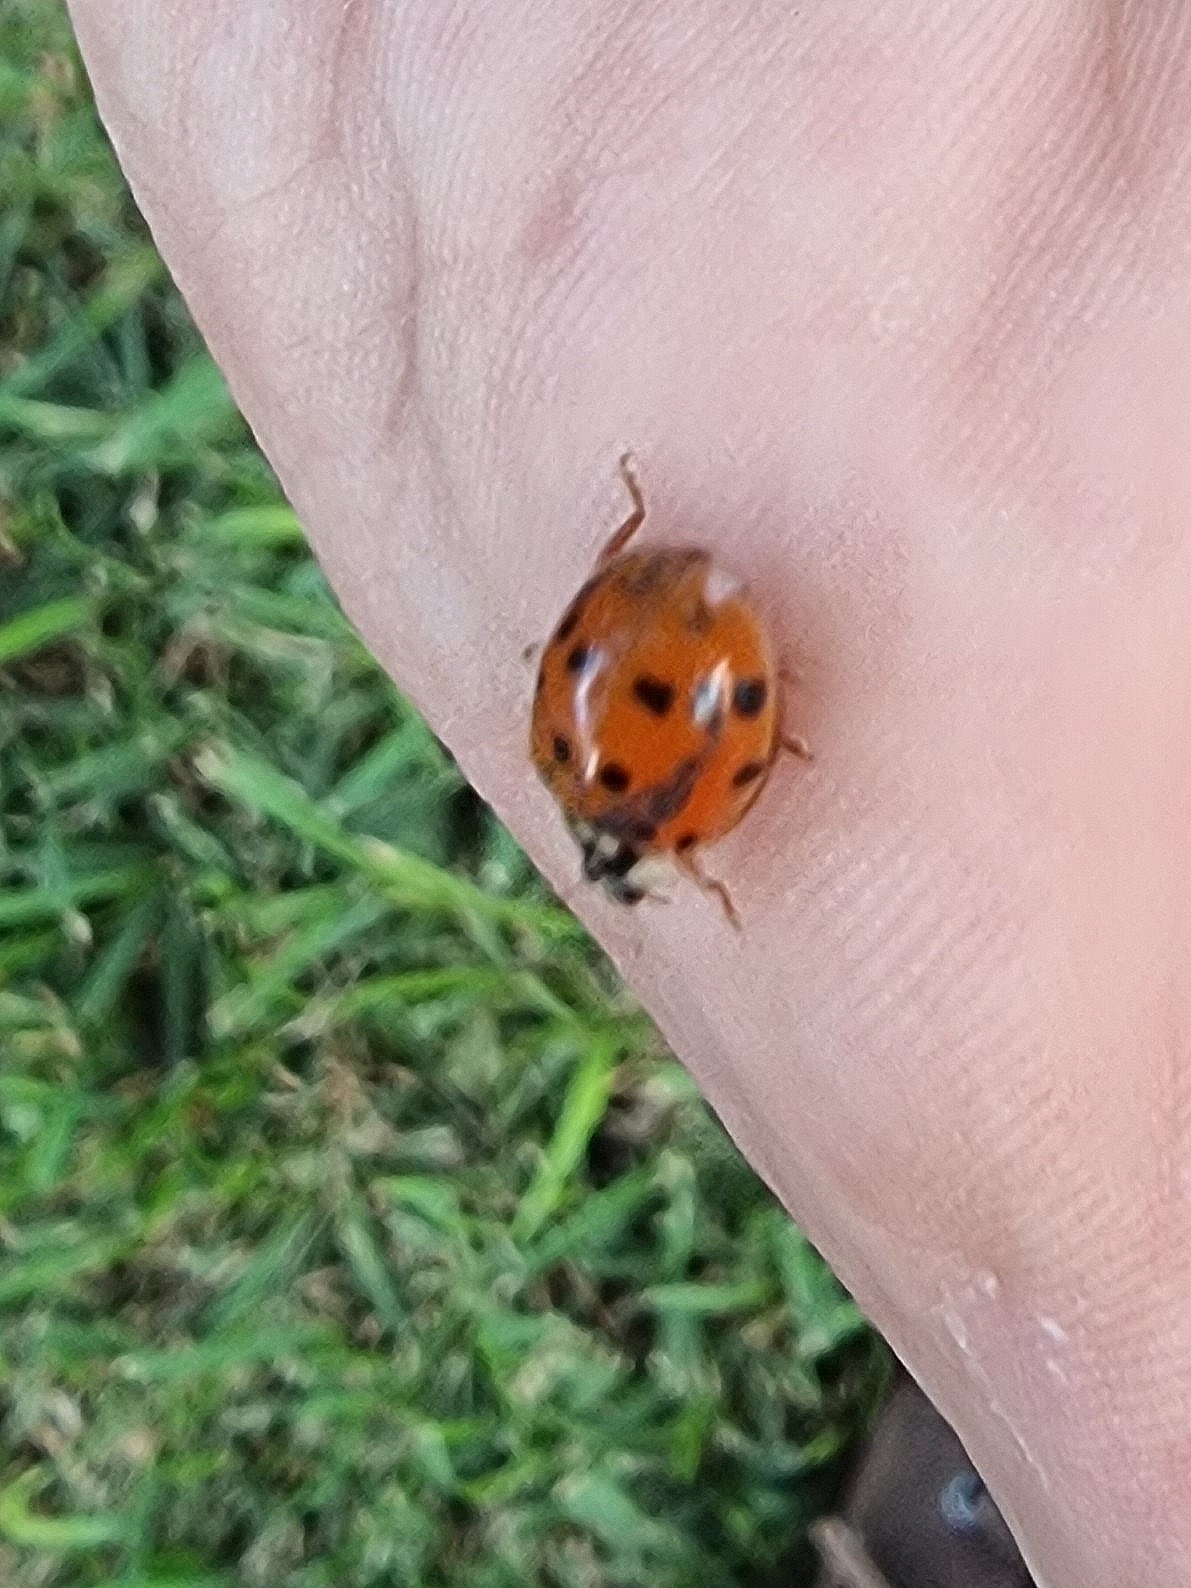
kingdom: Animalia
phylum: Arthropoda
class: Insecta
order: Coleoptera
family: Coccinellidae
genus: Harmonia
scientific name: Harmonia axyridis
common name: Harlequin ladybird
